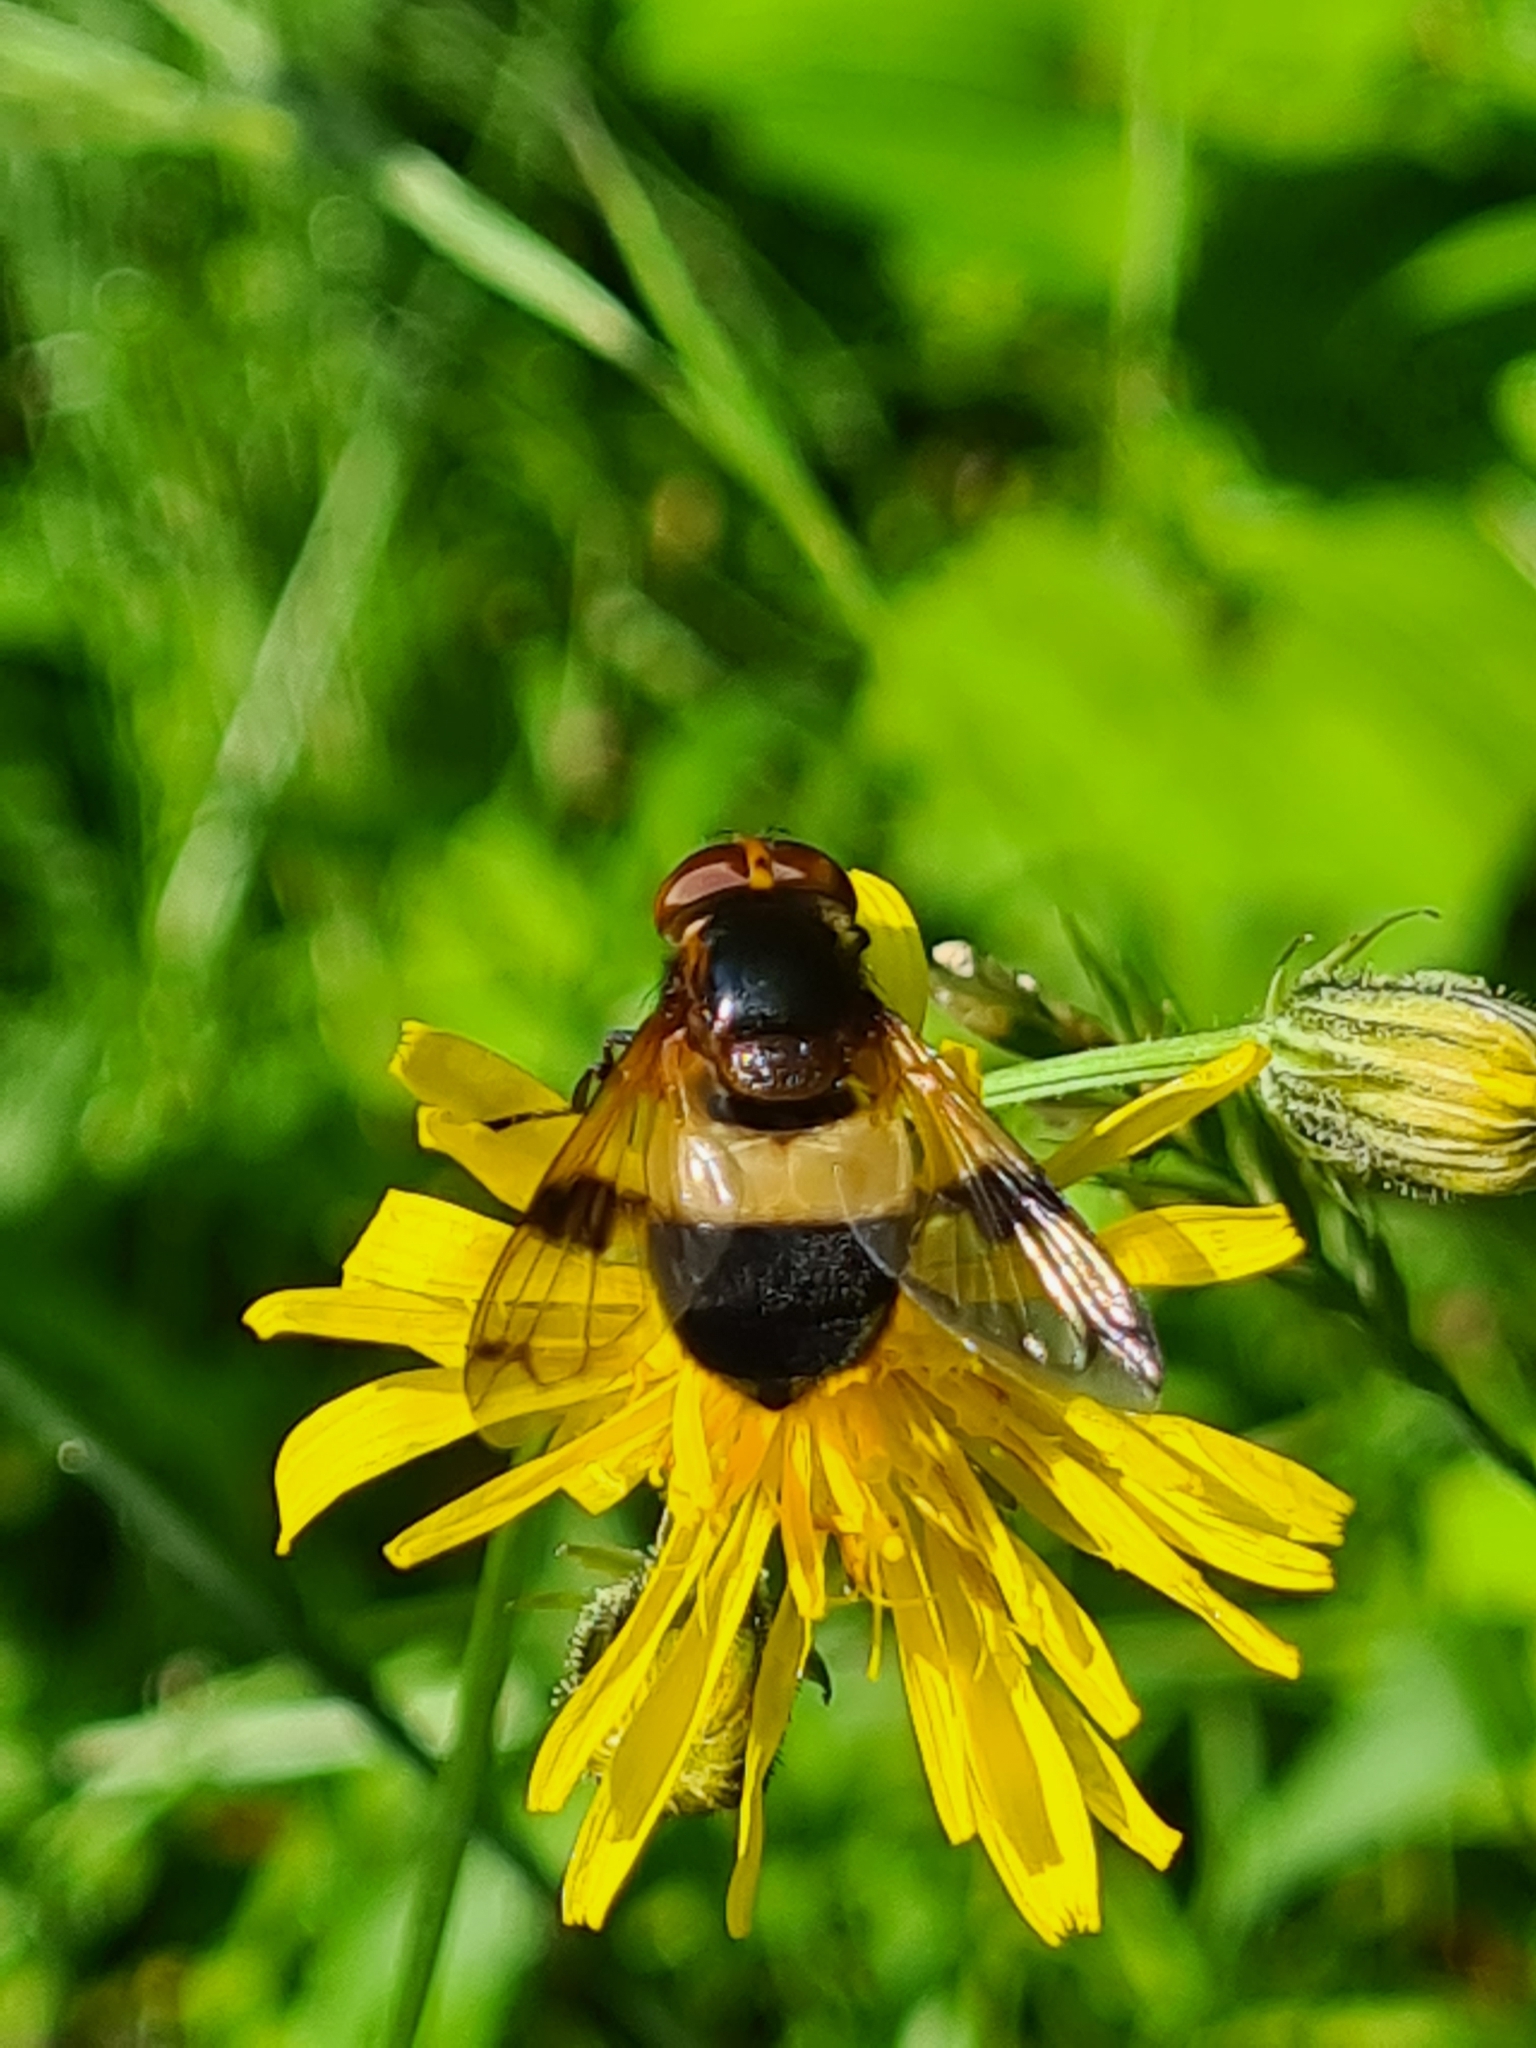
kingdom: Animalia
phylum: Arthropoda
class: Insecta
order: Diptera
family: Syrphidae
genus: Volucella
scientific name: Volucella pellucens
